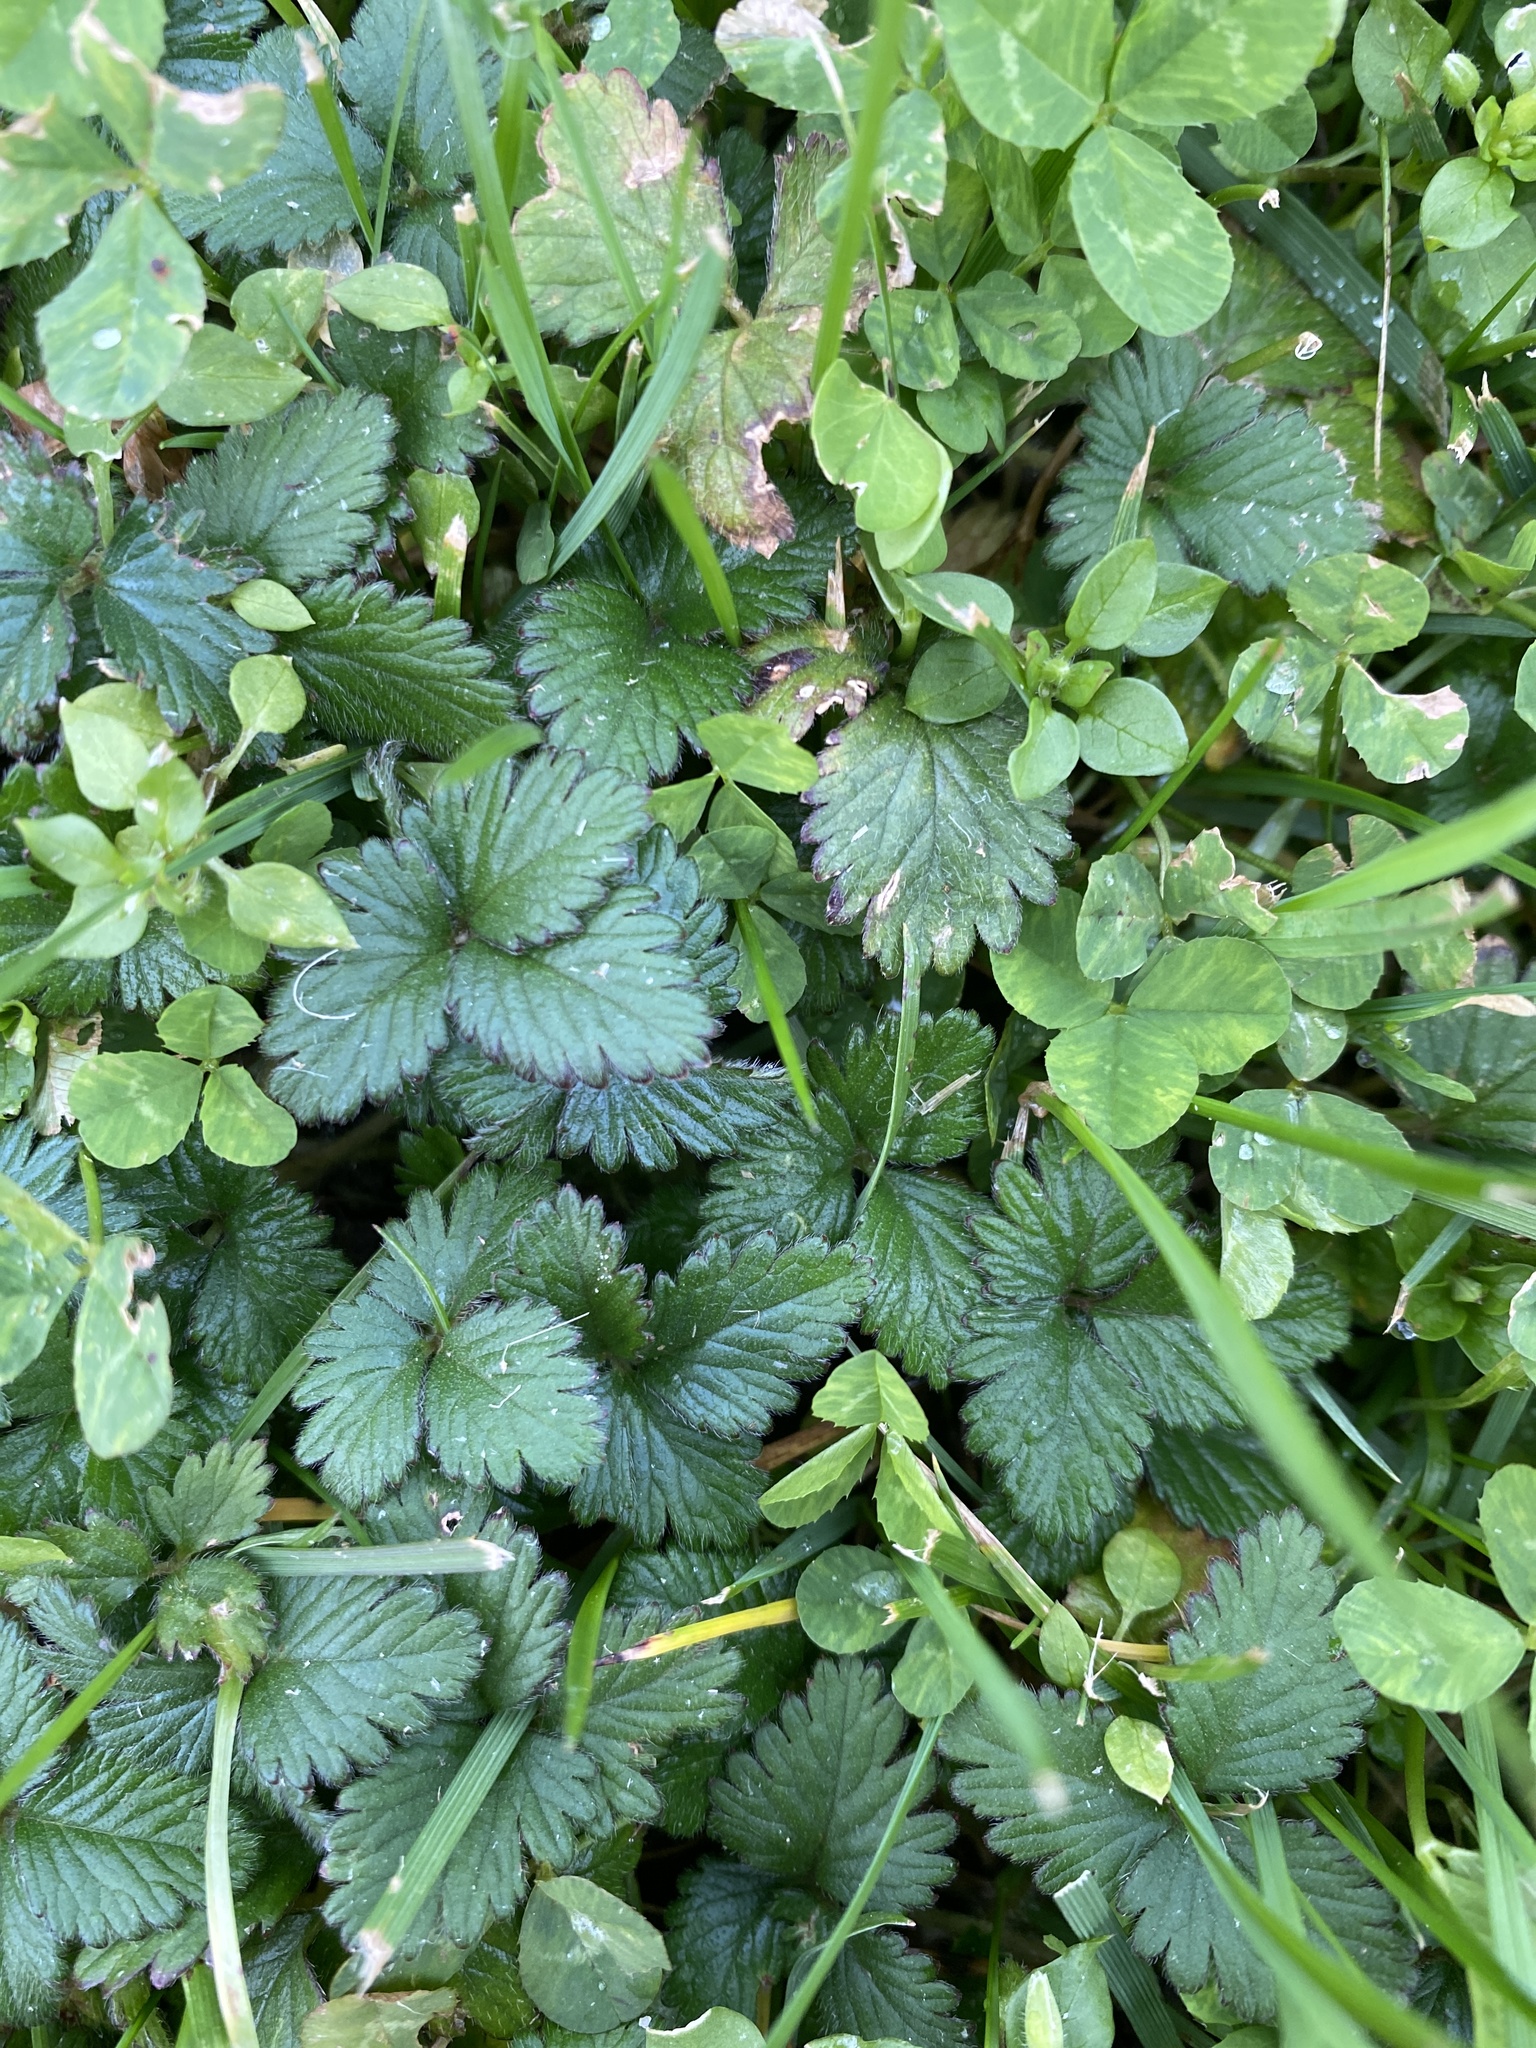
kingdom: Plantae
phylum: Tracheophyta
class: Magnoliopsida
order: Rosales
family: Rosaceae
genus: Potentilla
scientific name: Potentilla indica
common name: Yellow-flowered strawberry
